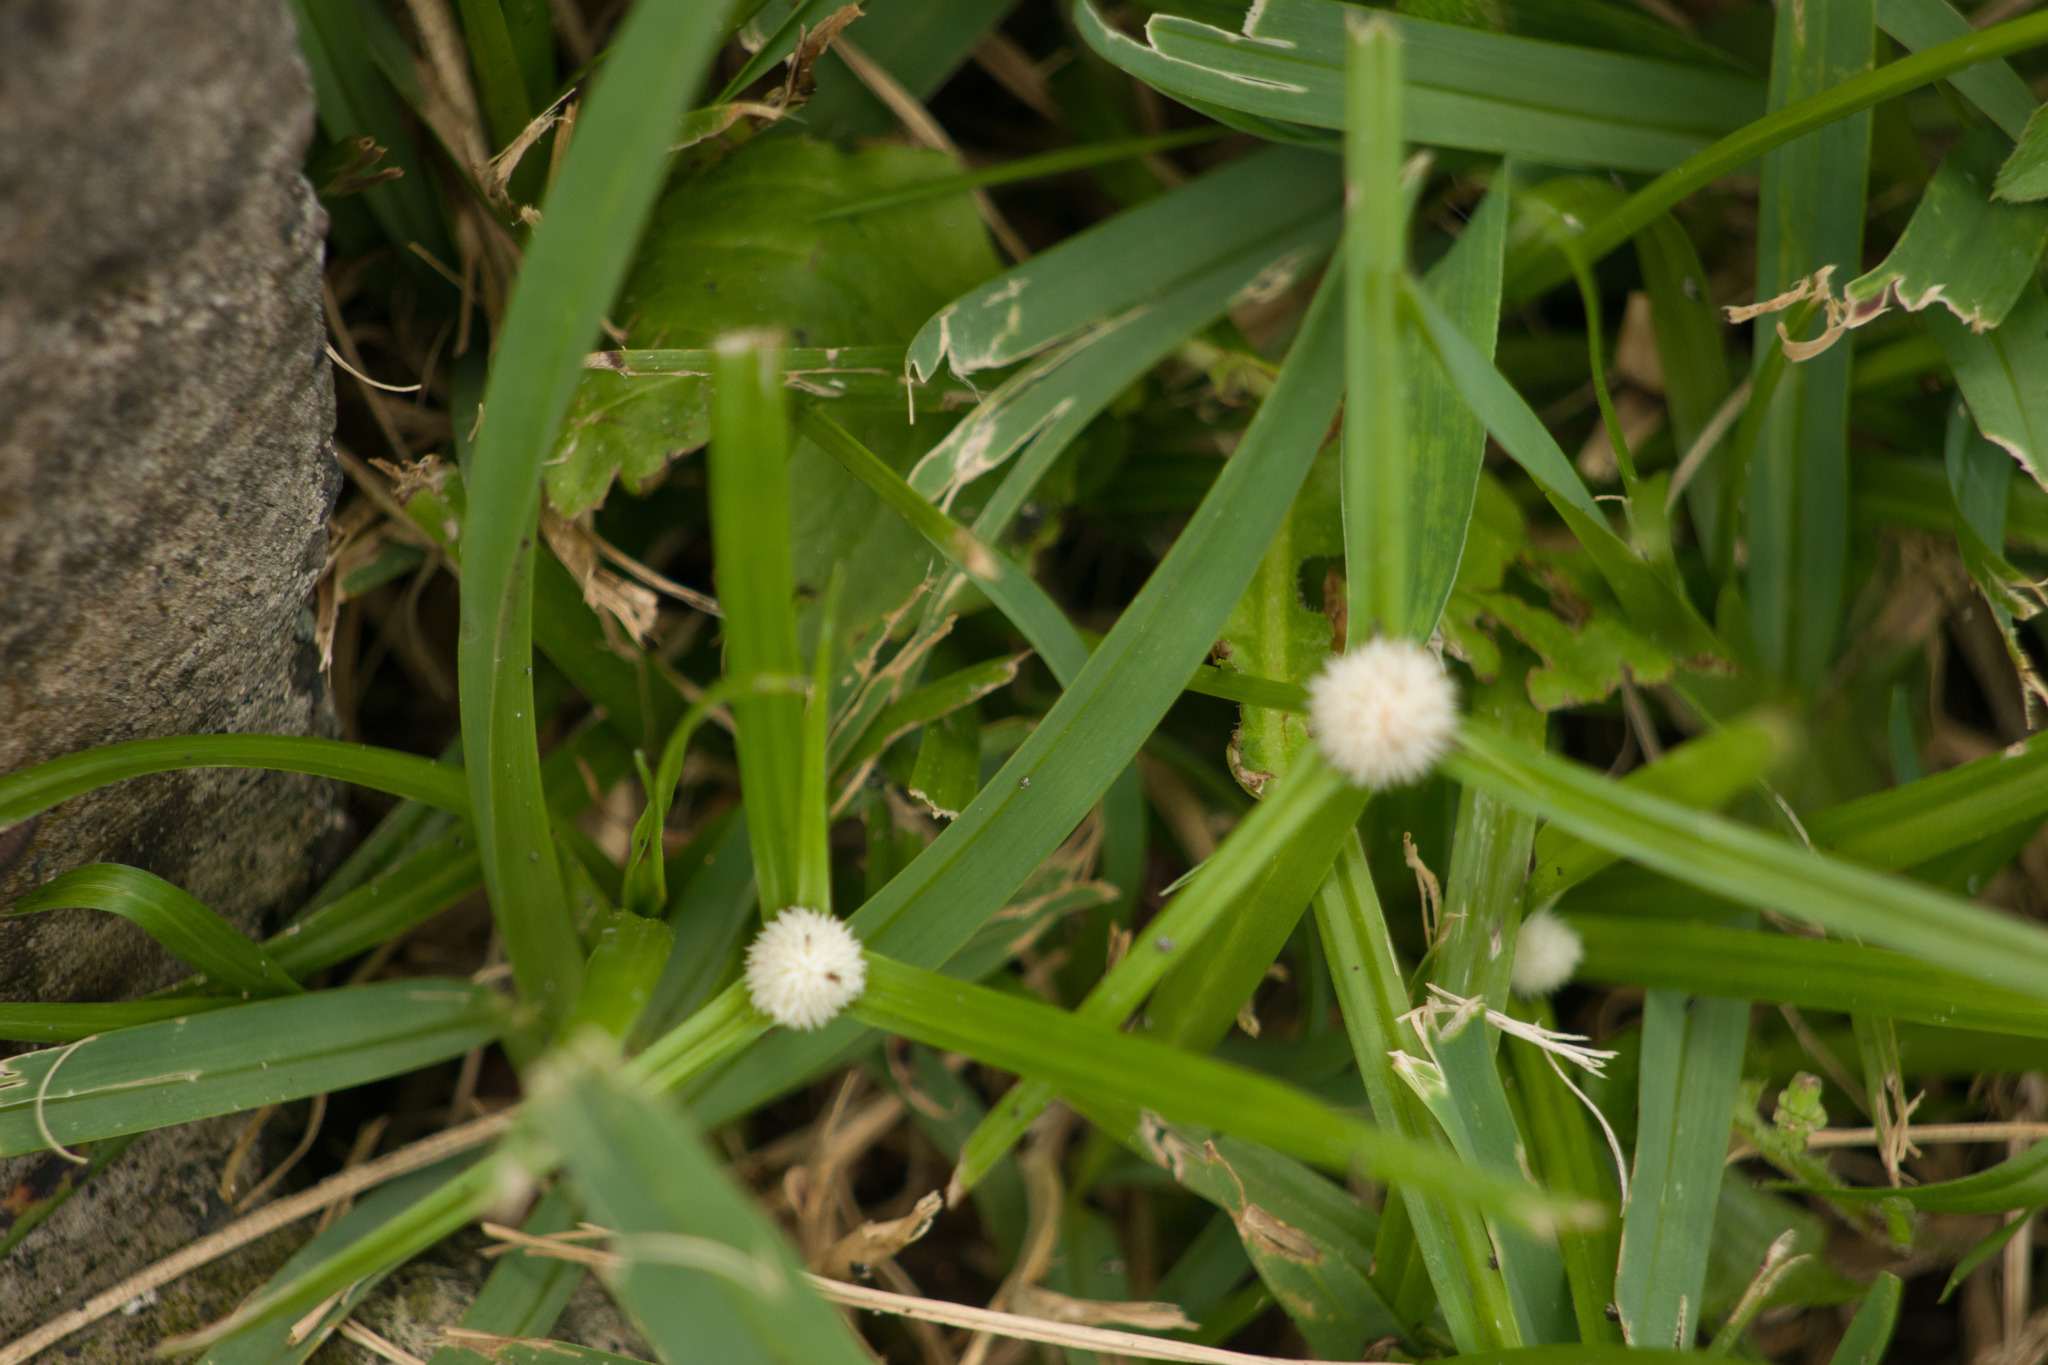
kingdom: Plantae
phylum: Tracheophyta
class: Liliopsida
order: Poales
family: Cyperaceae
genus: Cyperus
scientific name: Cyperus mindorensis
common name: Flatsedge
